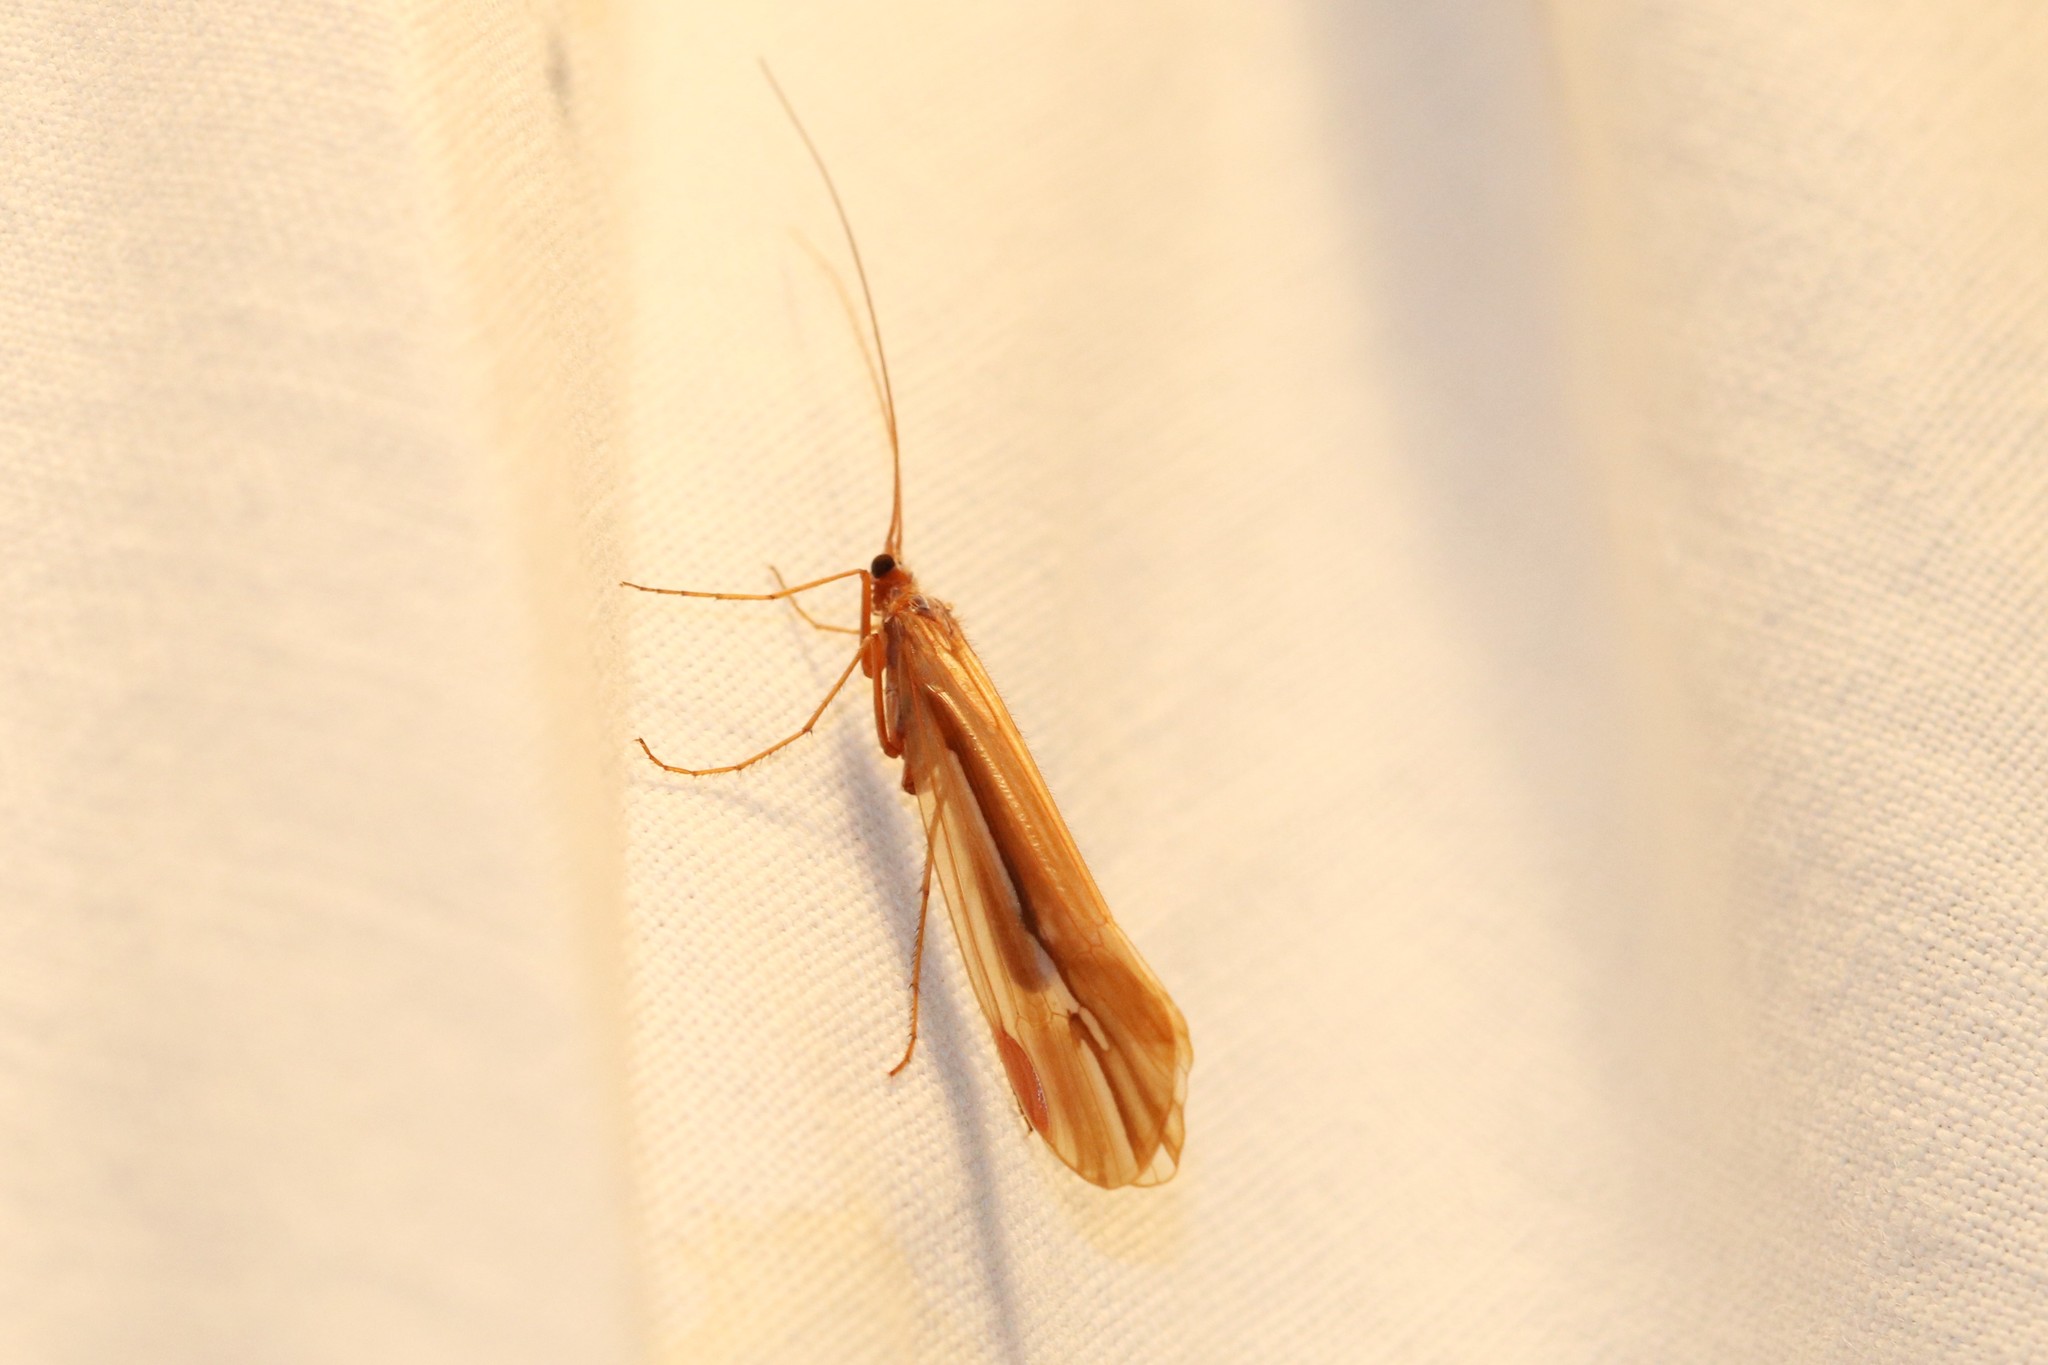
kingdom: Animalia
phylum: Arthropoda
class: Insecta
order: Trichoptera
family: Limnephilidae
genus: Psychoglypha
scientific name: Psychoglypha subborealis
